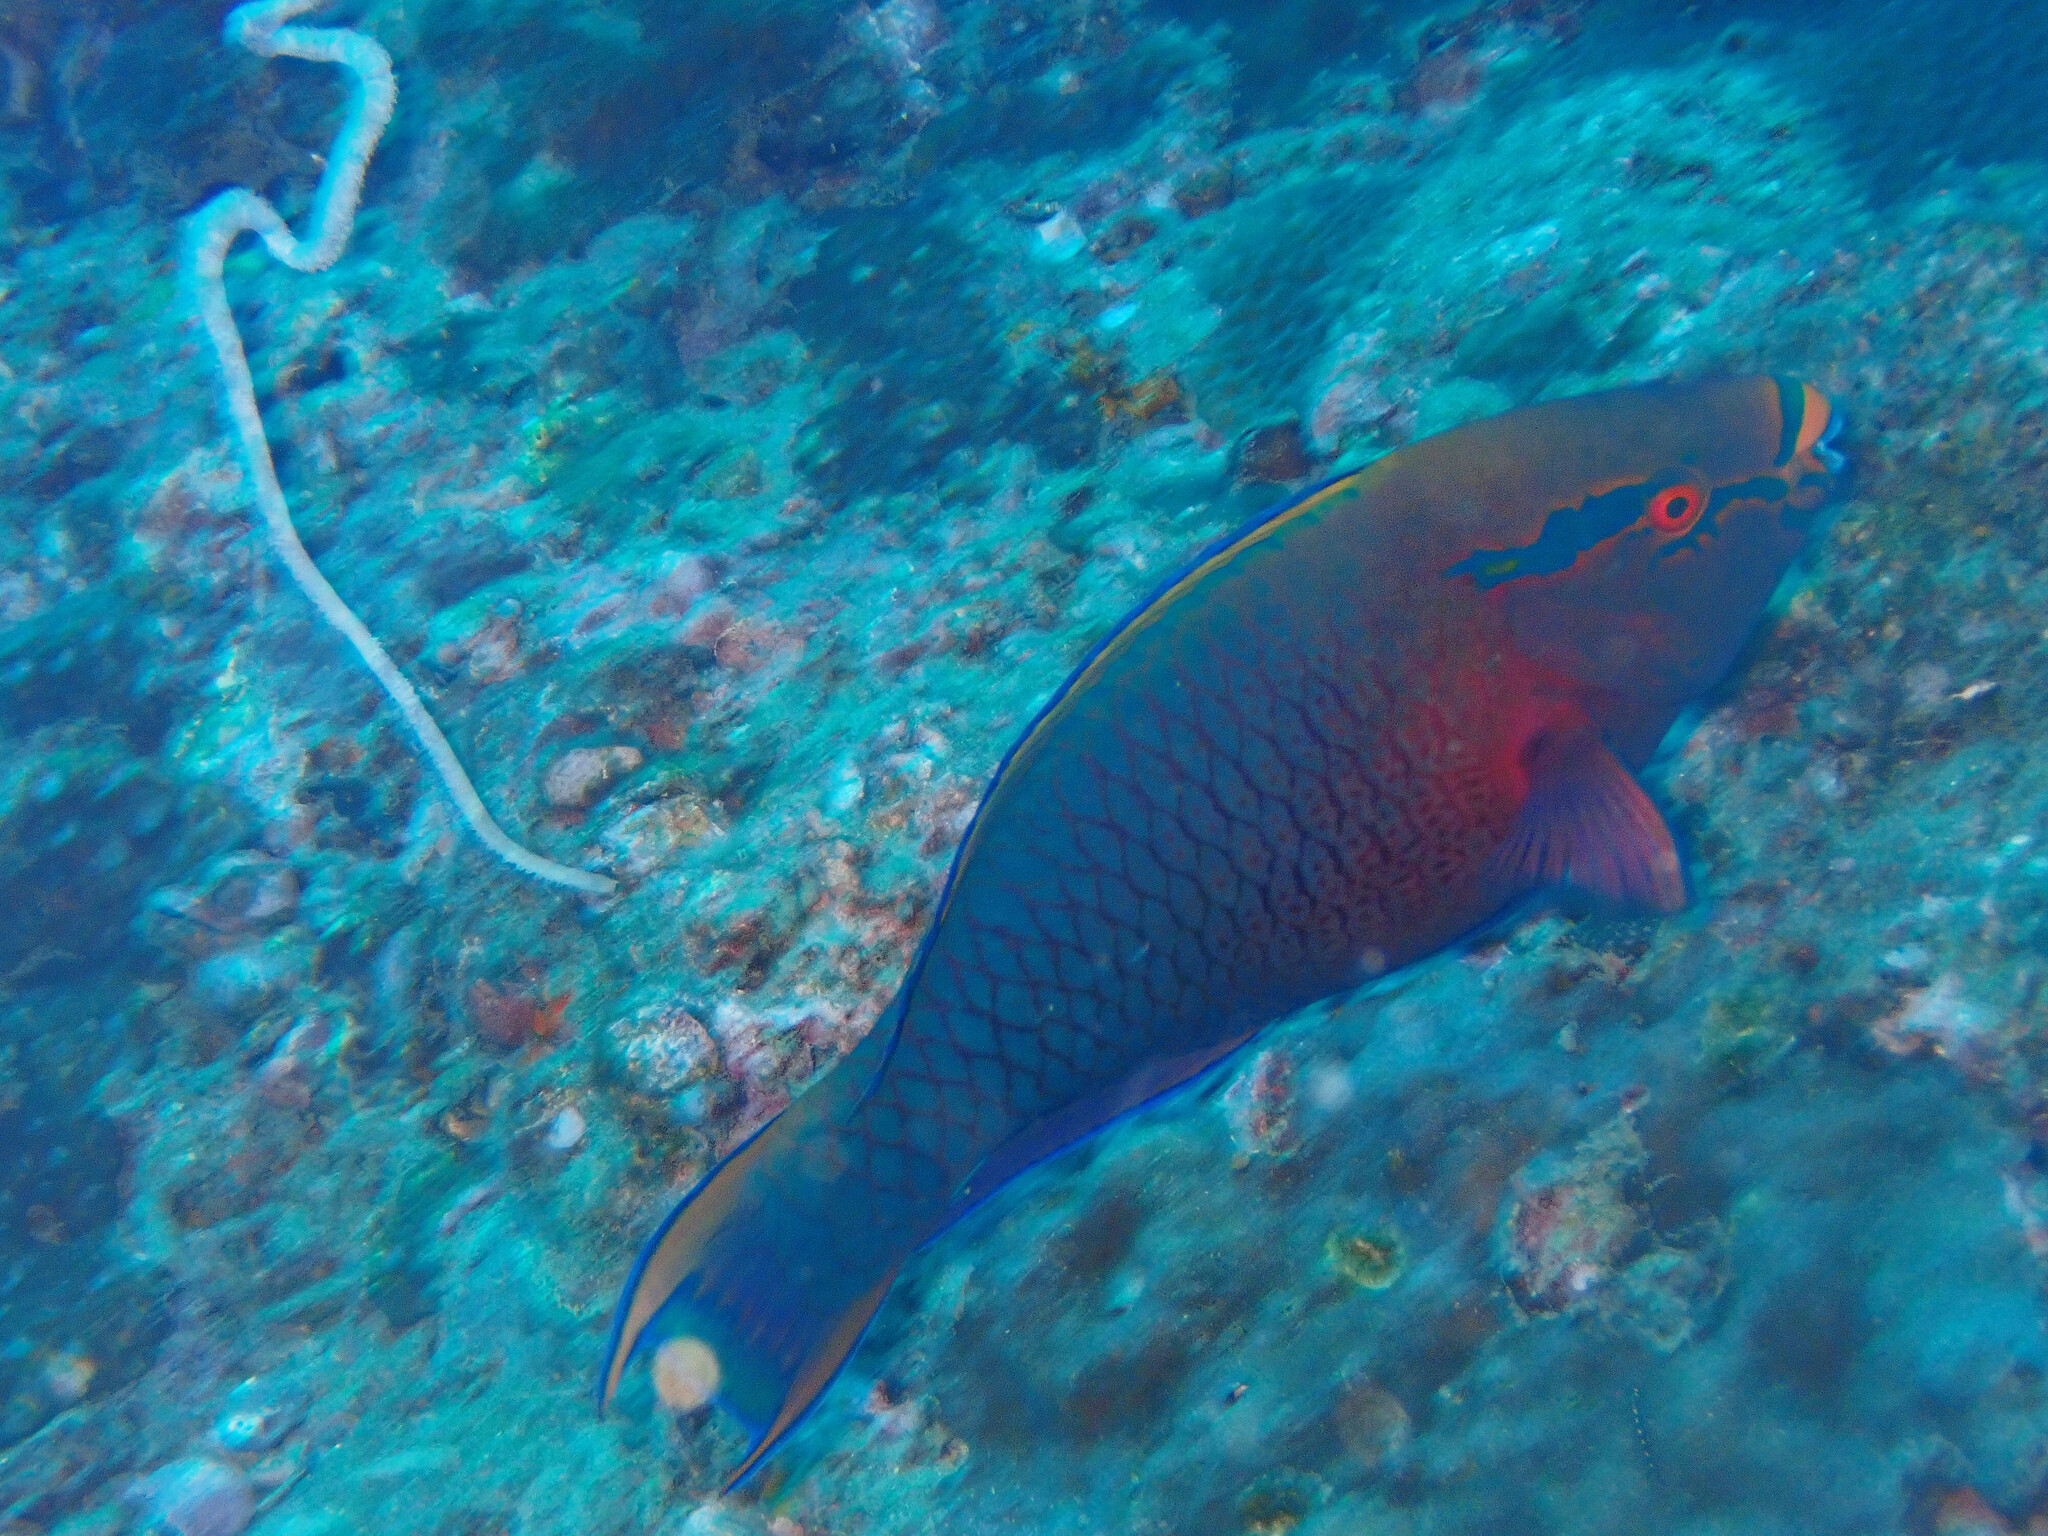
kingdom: Animalia
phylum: Chordata
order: Perciformes
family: Scaridae
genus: Scarus
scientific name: Scarus niger
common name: Dusky parrotfish
